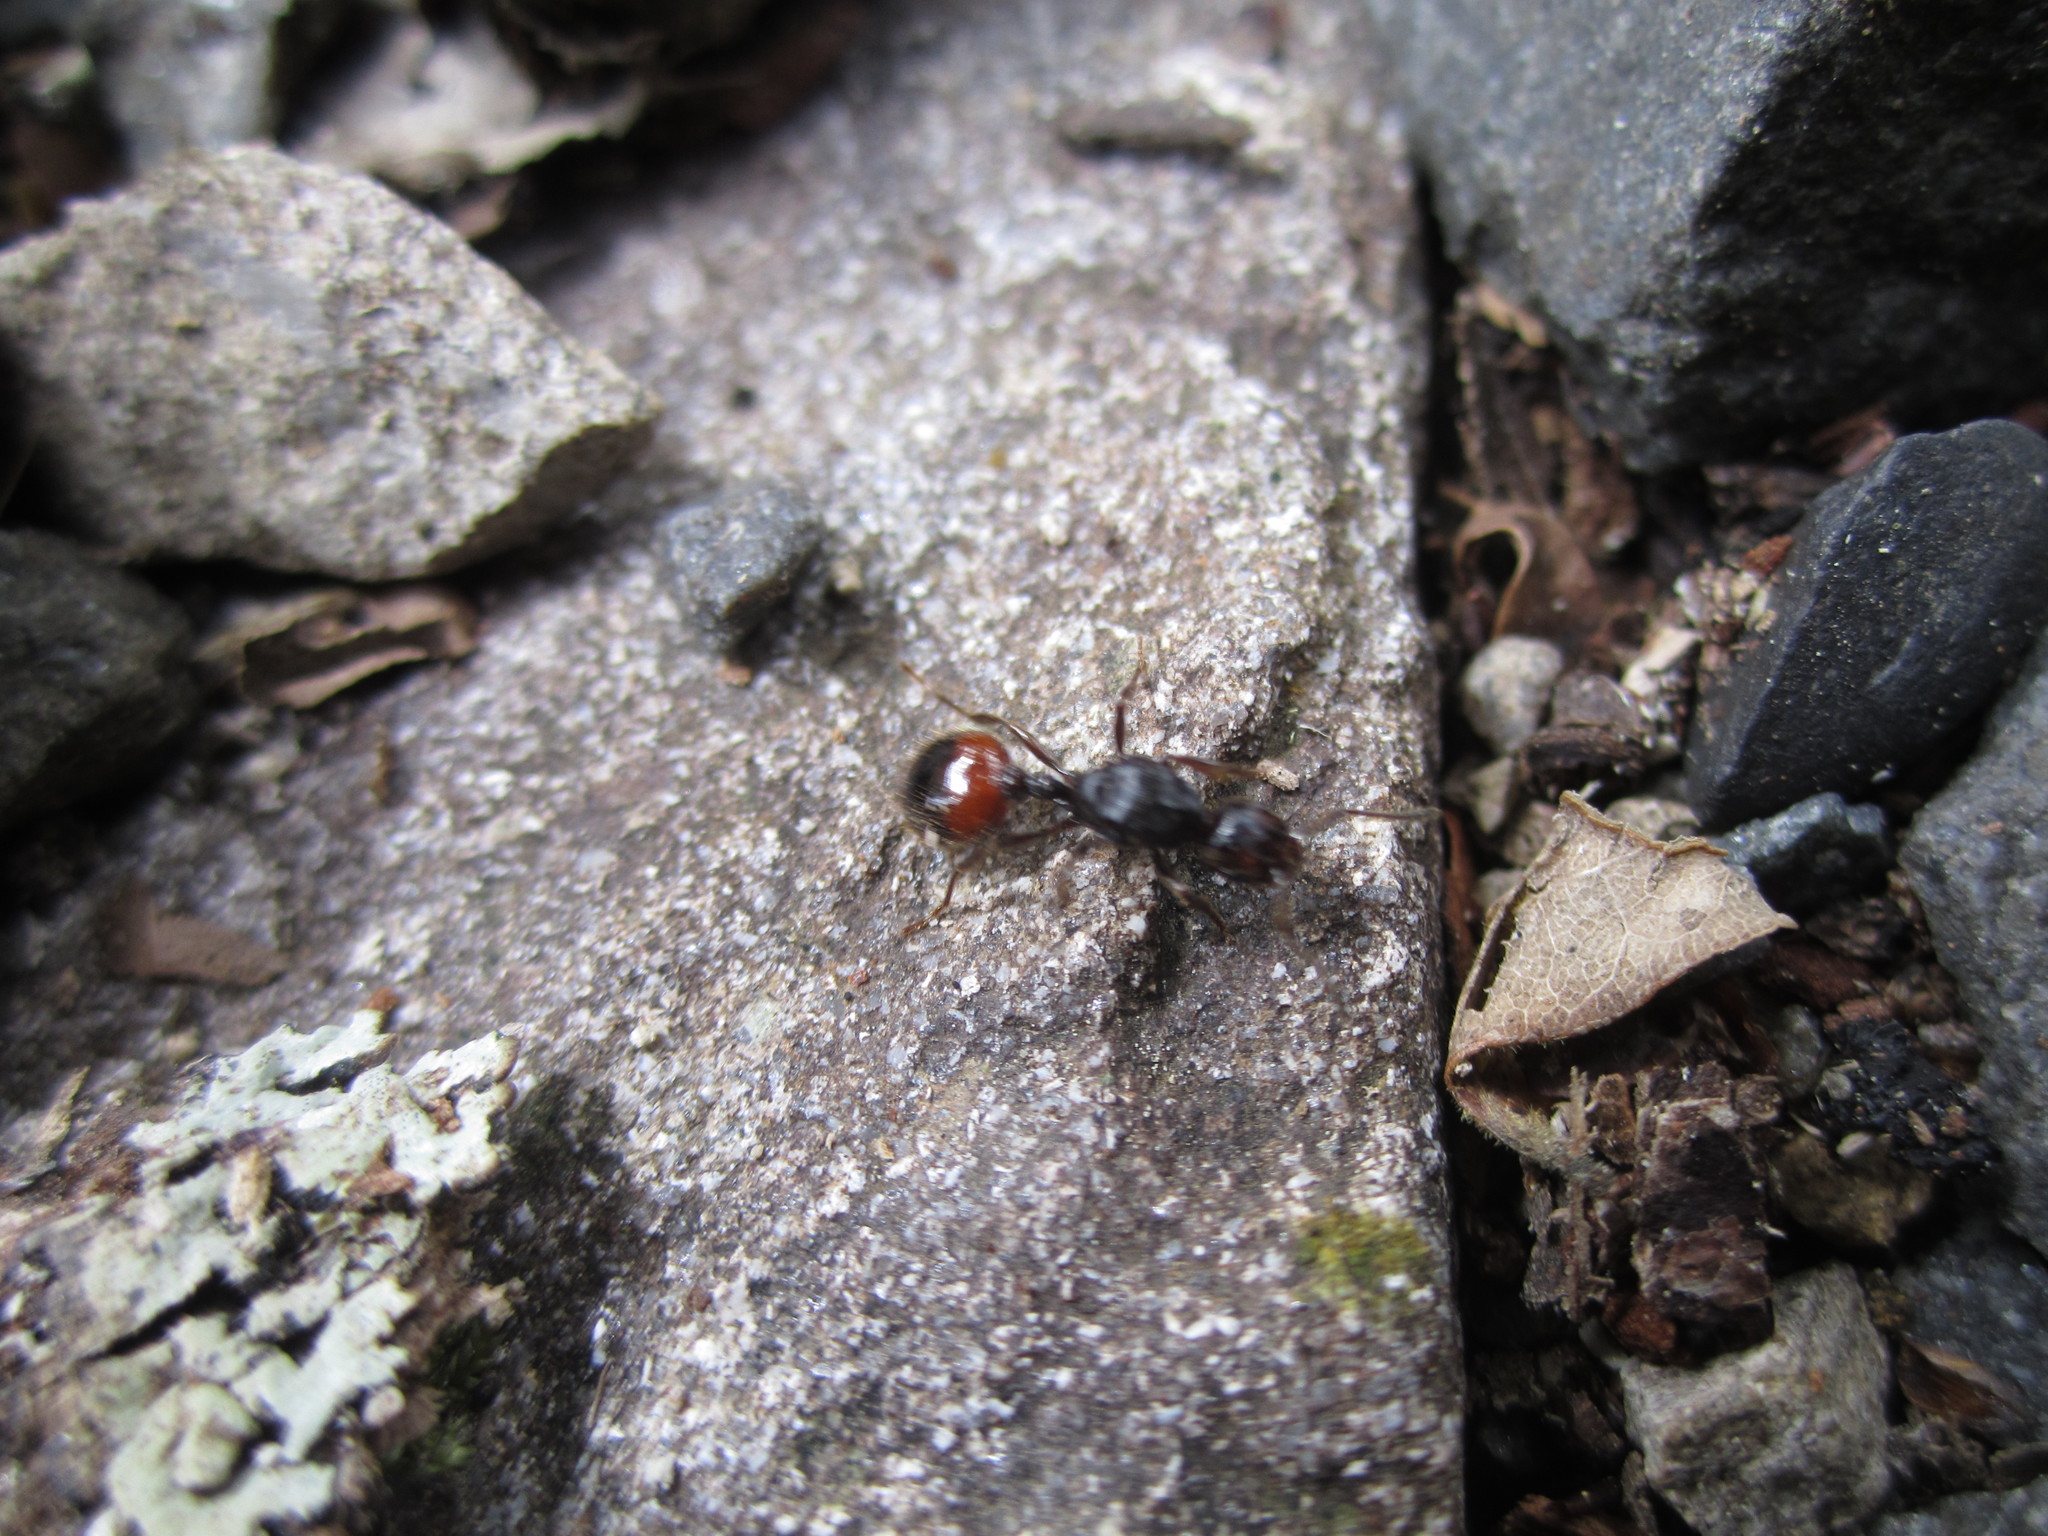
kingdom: Animalia
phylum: Arthropoda
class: Insecta
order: Hymenoptera
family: Formicidae
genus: Monomorium
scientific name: Monomorium antarcticum
